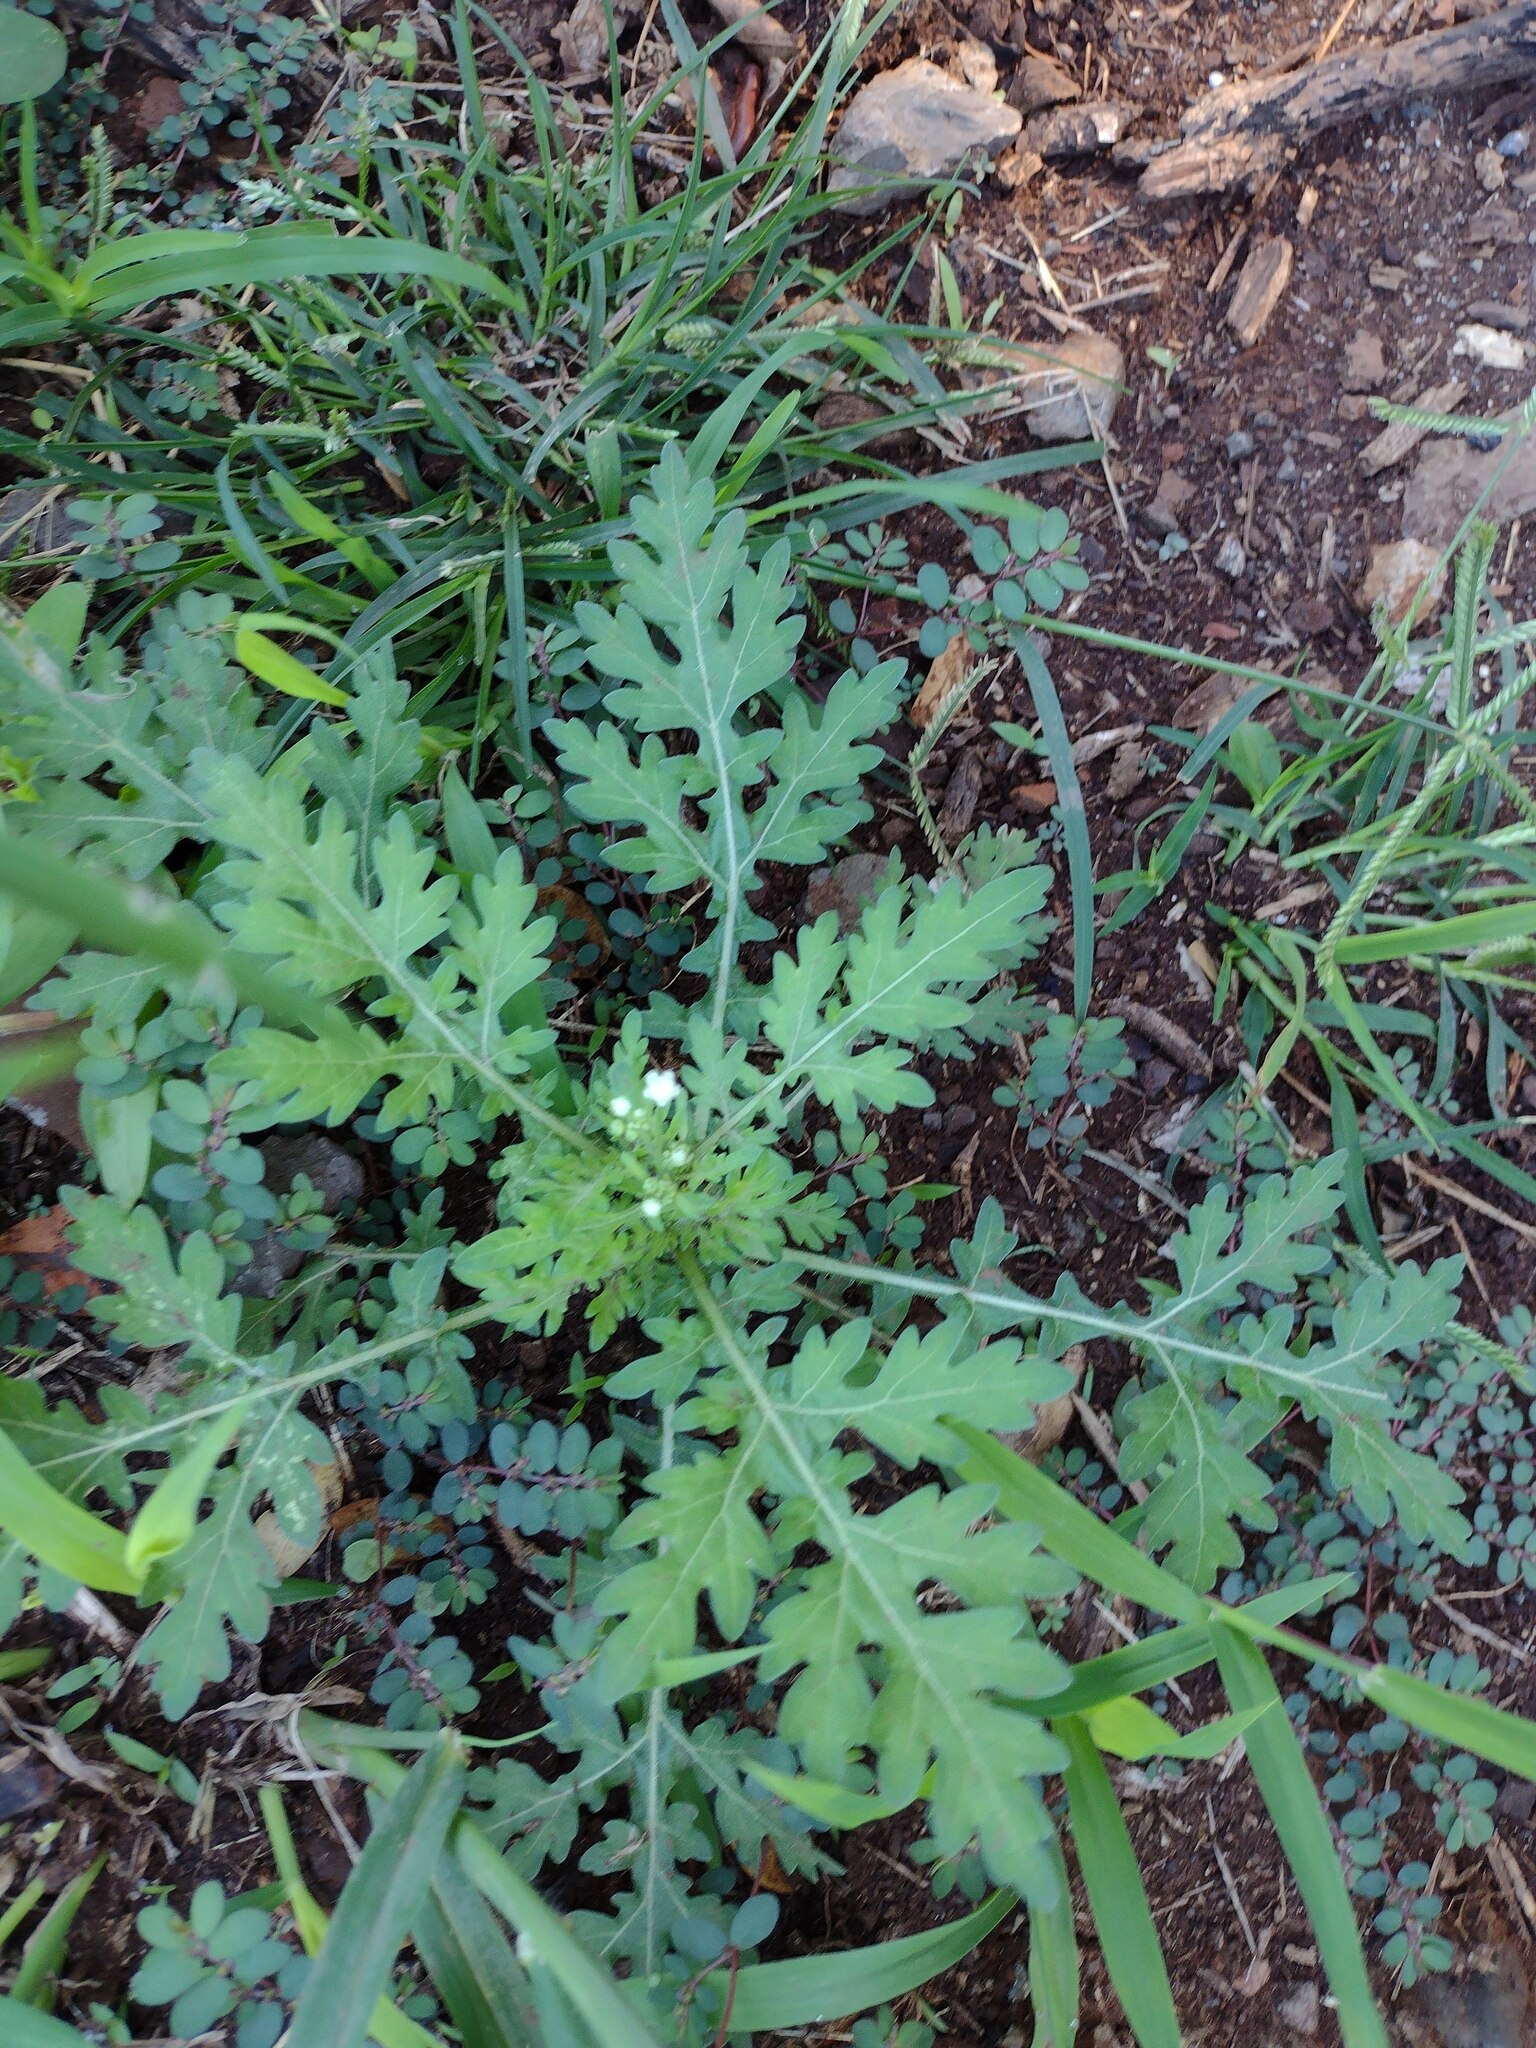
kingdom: Plantae
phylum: Tracheophyta
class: Magnoliopsida
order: Asterales
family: Asteraceae
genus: Parthenium
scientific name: Parthenium hysterophorus
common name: Santa maria feverfew
